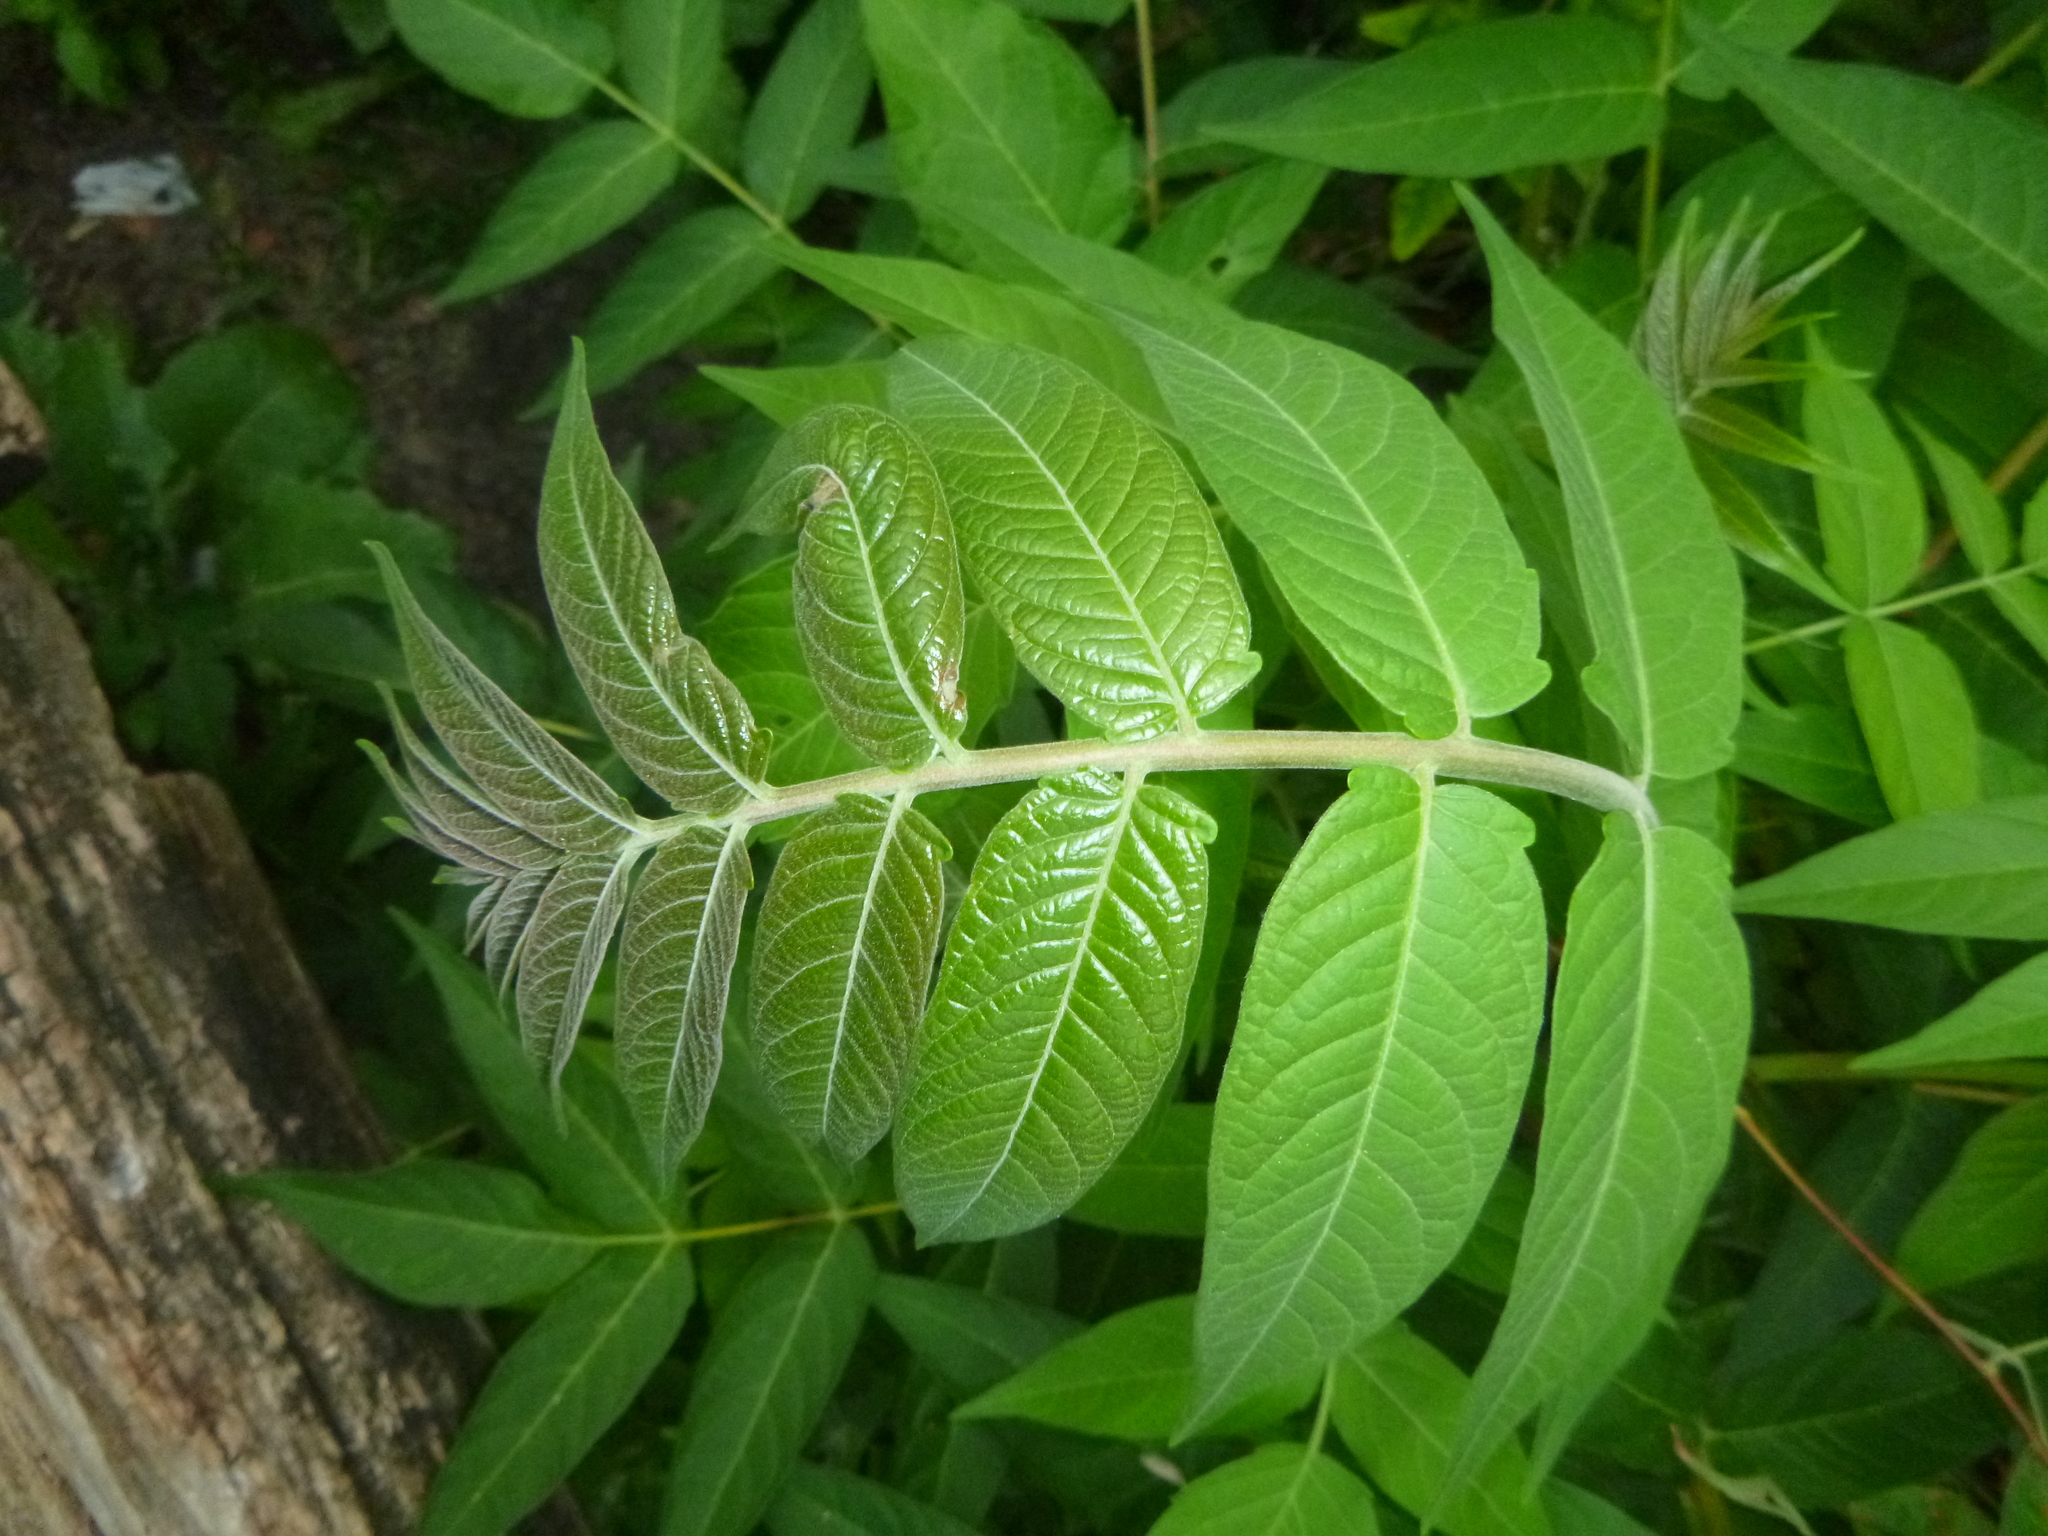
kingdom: Plantae
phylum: Tracheophyta
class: Magnoliopsida
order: Sapindales
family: Simaroubaceae
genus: Ailanthus
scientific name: Ailanthus altissima
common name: Tree-of-heaven
